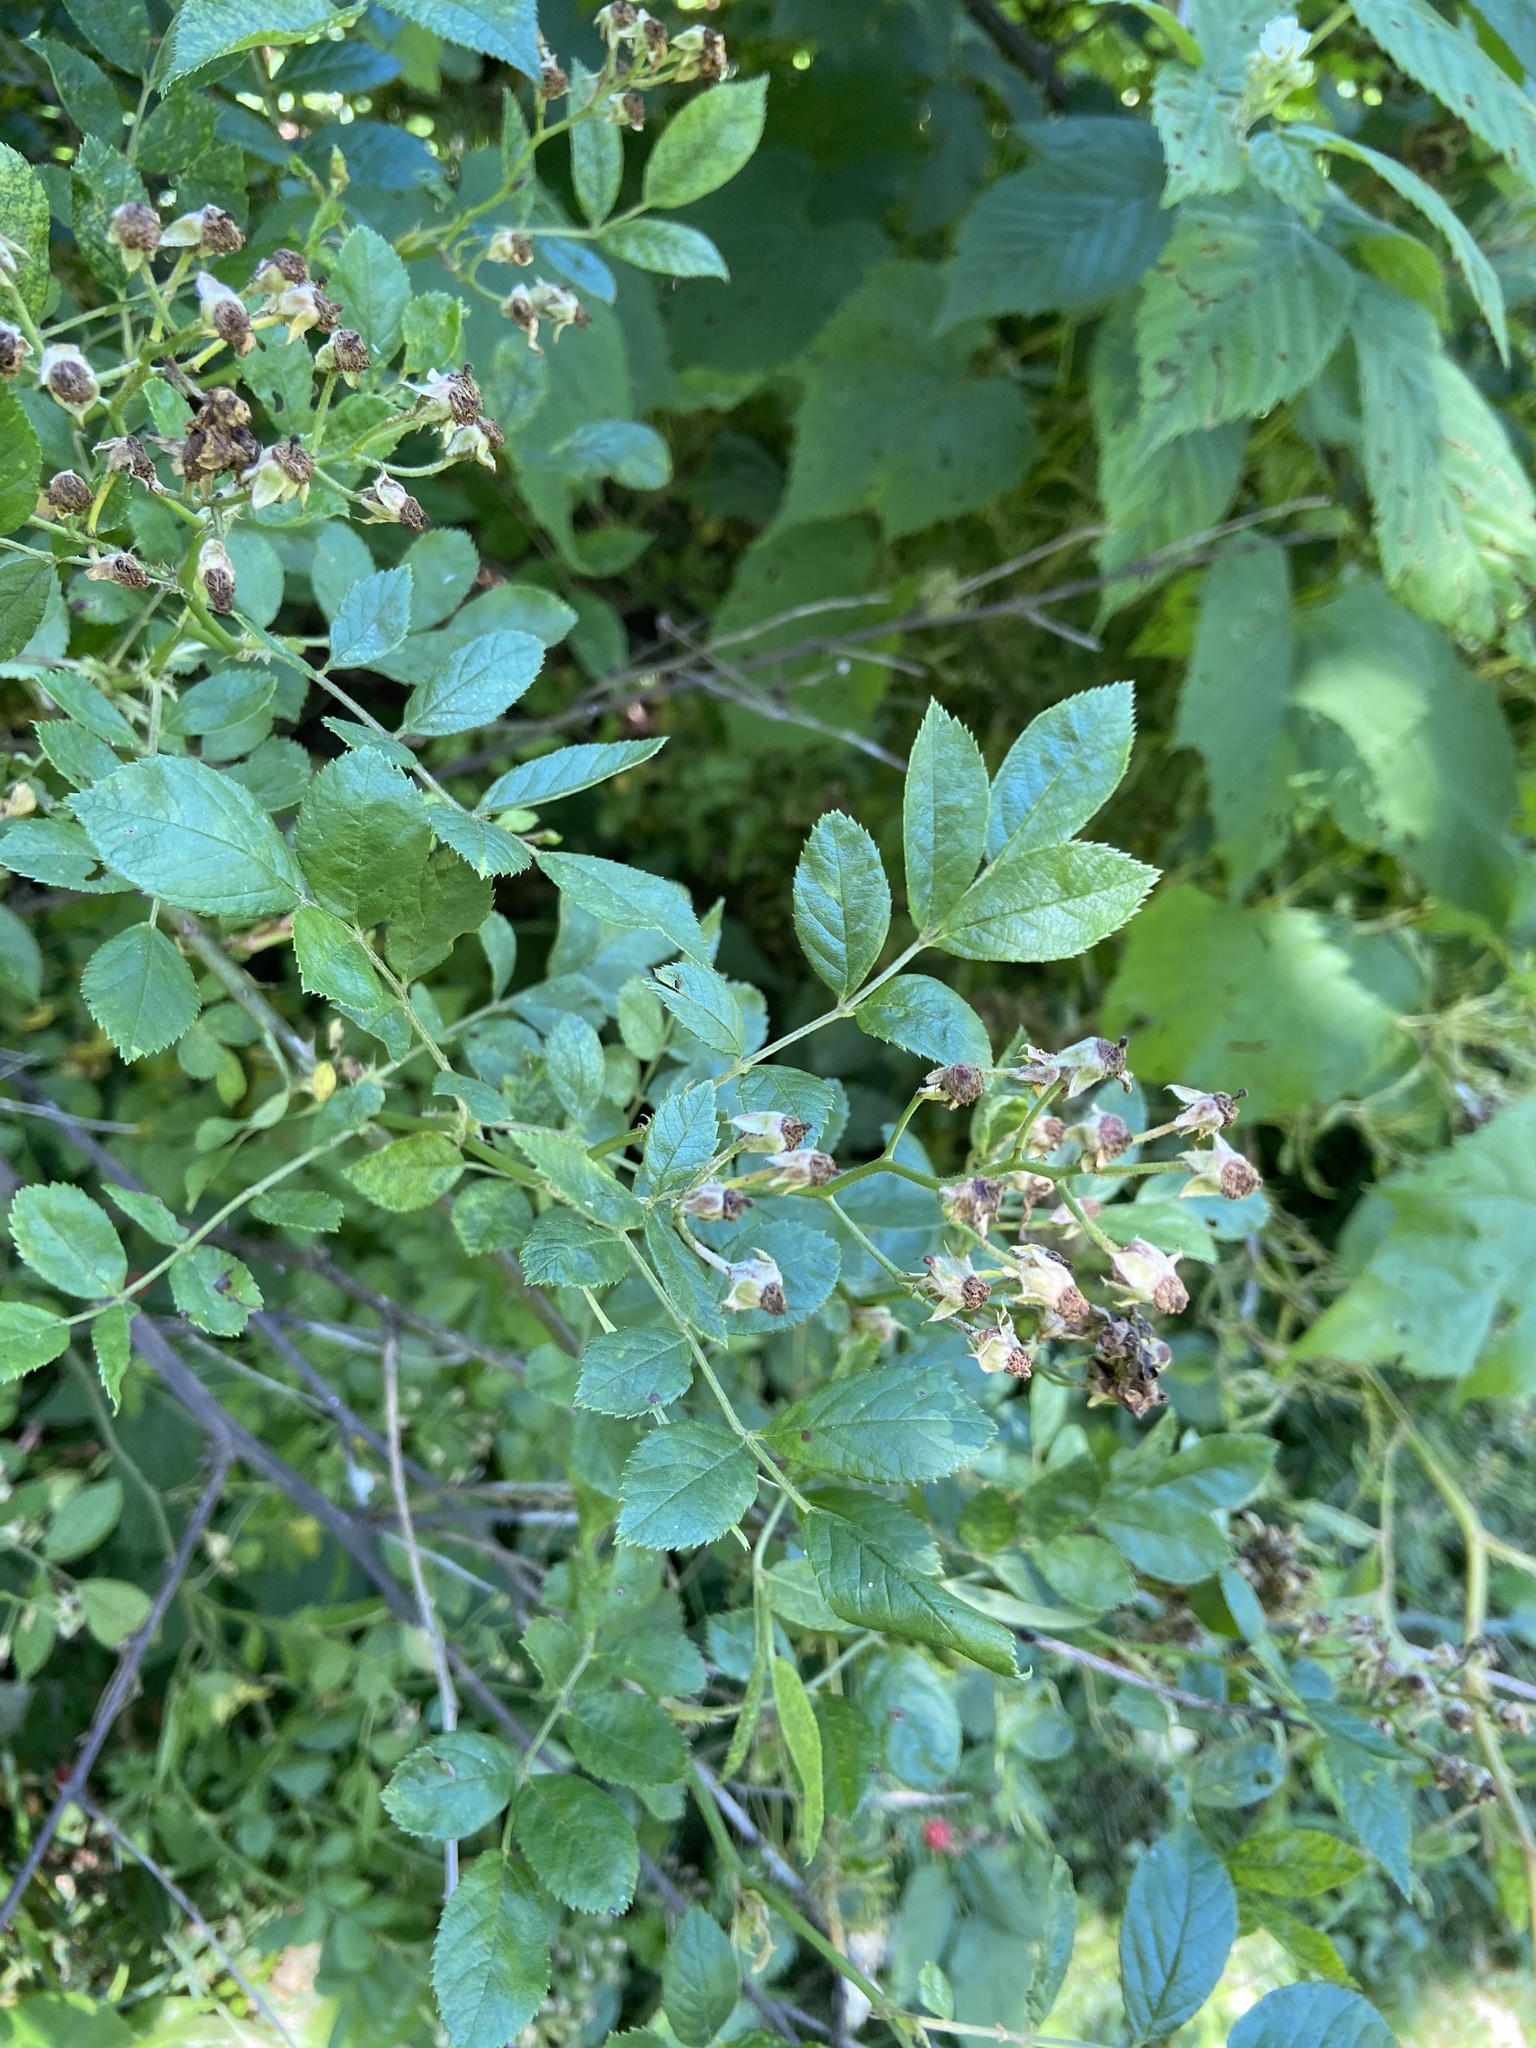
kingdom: Plantae
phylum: Tracheophyta
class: Magnoliopsida
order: Rosales
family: Rosaceae
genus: Rosa
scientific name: Rosa multiflora
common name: Multiflora rose
